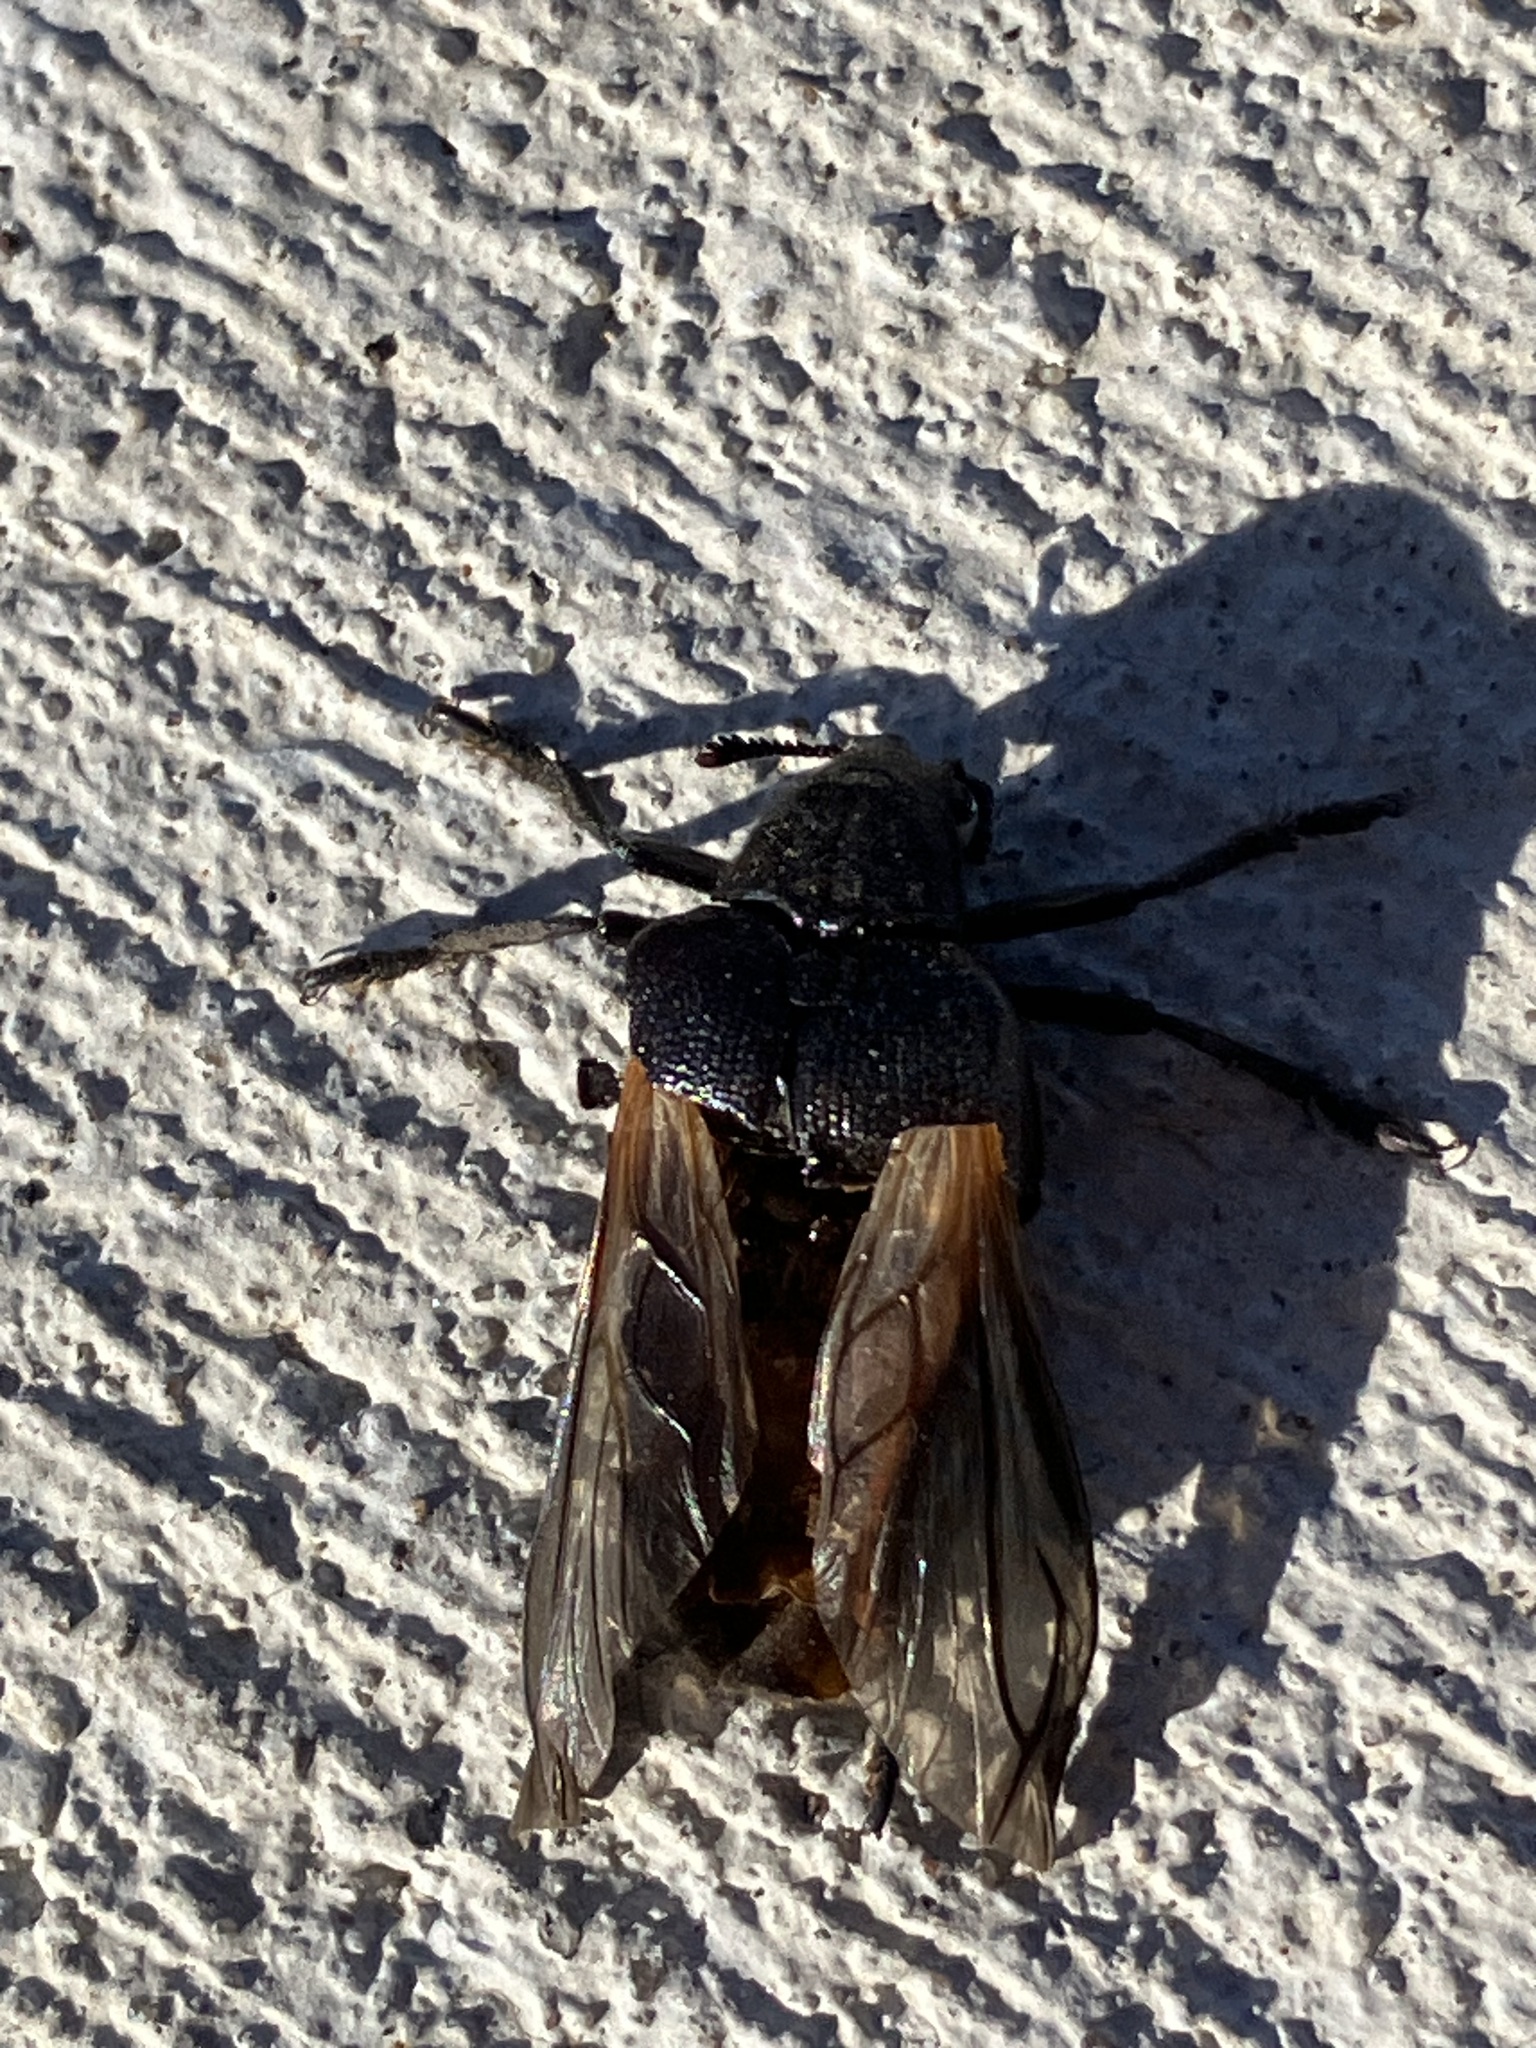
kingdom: Animalia
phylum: Arthropoda
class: Insecta
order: Coleoptera
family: Rhipiceridae
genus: Sandalus
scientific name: Sandalus niger
